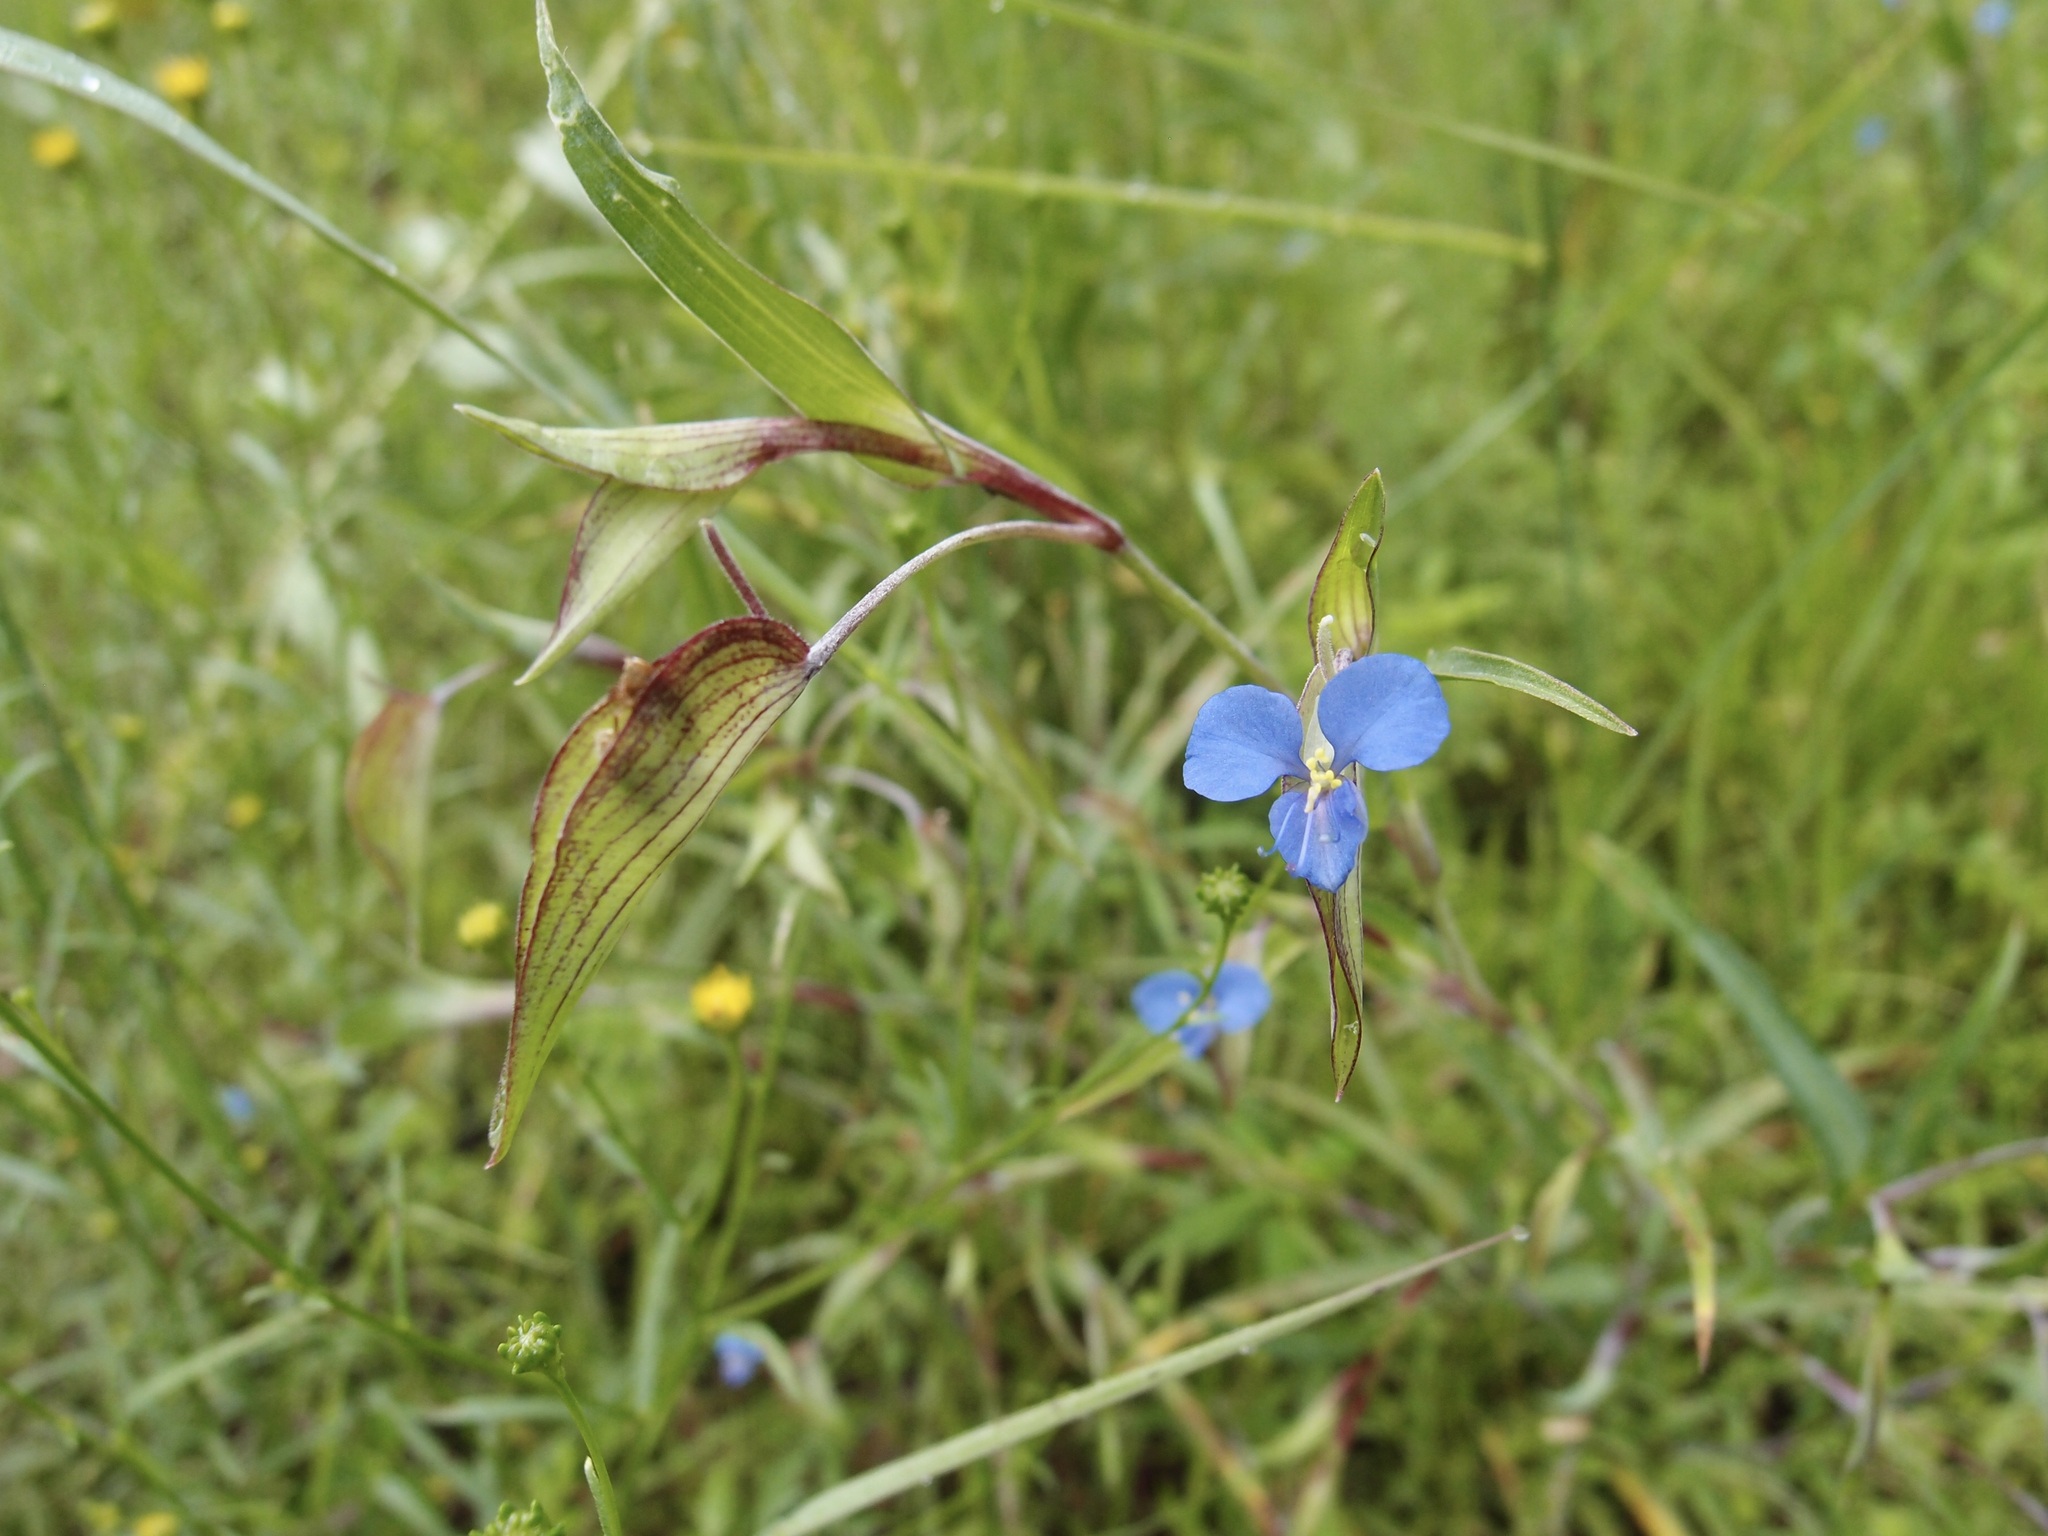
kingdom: Plantae
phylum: Tracheophyta
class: Liliopsida
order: Commelinales
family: Commelinaceae
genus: Commelina
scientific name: Commelina dianthifolia
